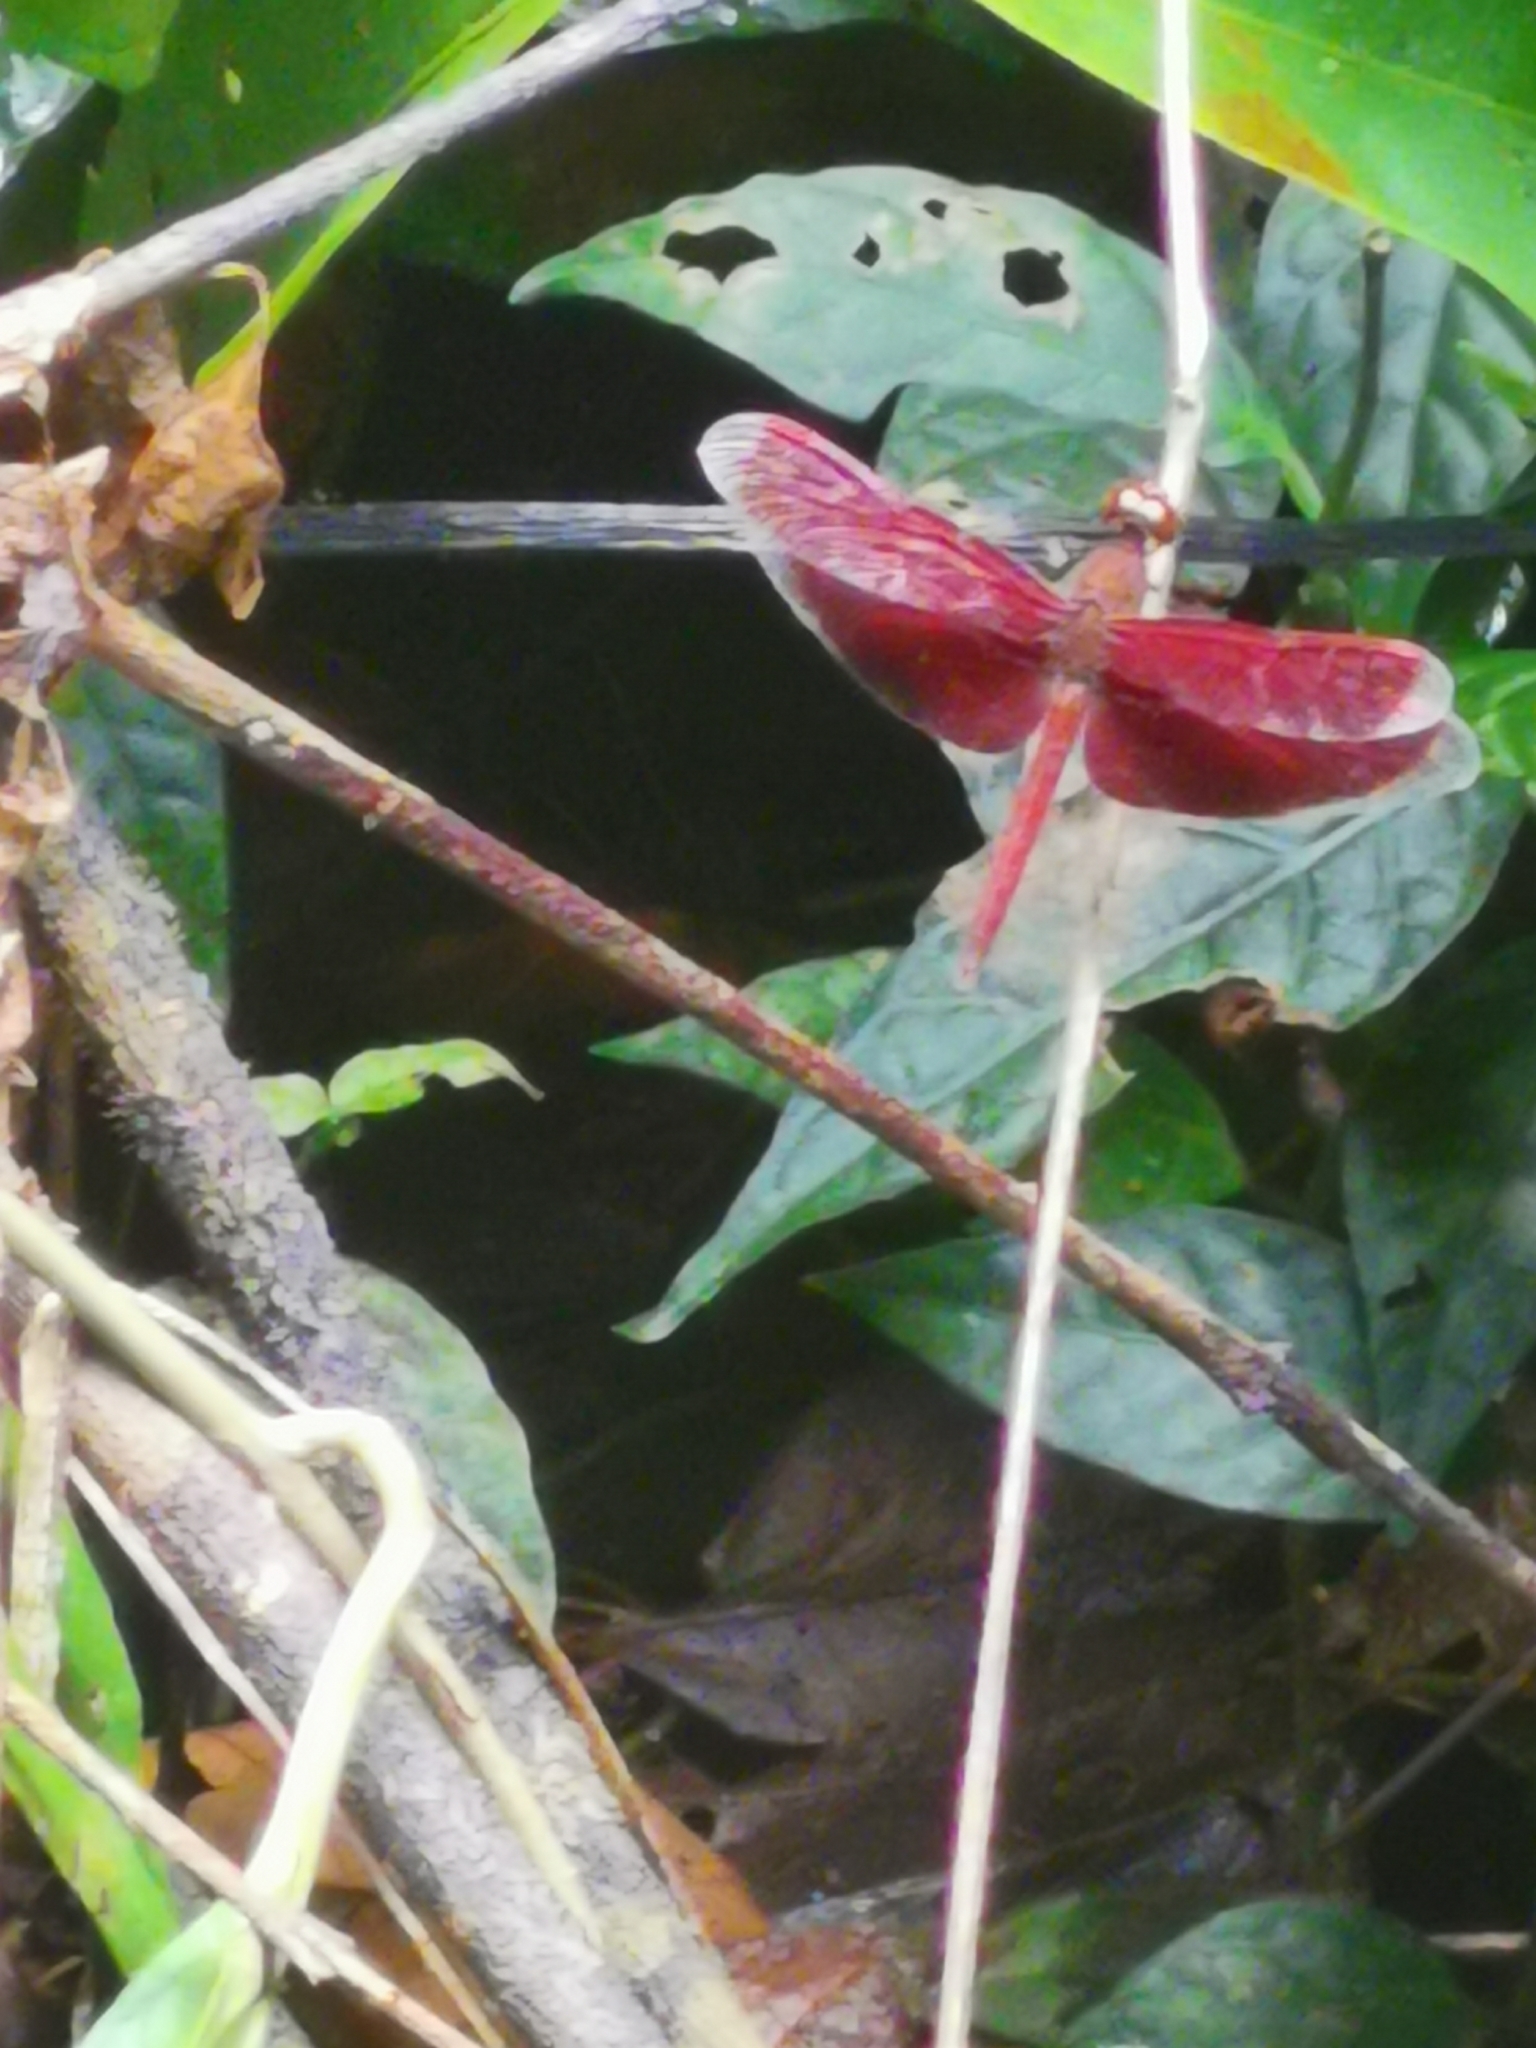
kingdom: Animalia
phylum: Arthropoda
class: Insecta
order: Odonata
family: Libellulidae
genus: Neurothemis
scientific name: Neurothemis terminata
